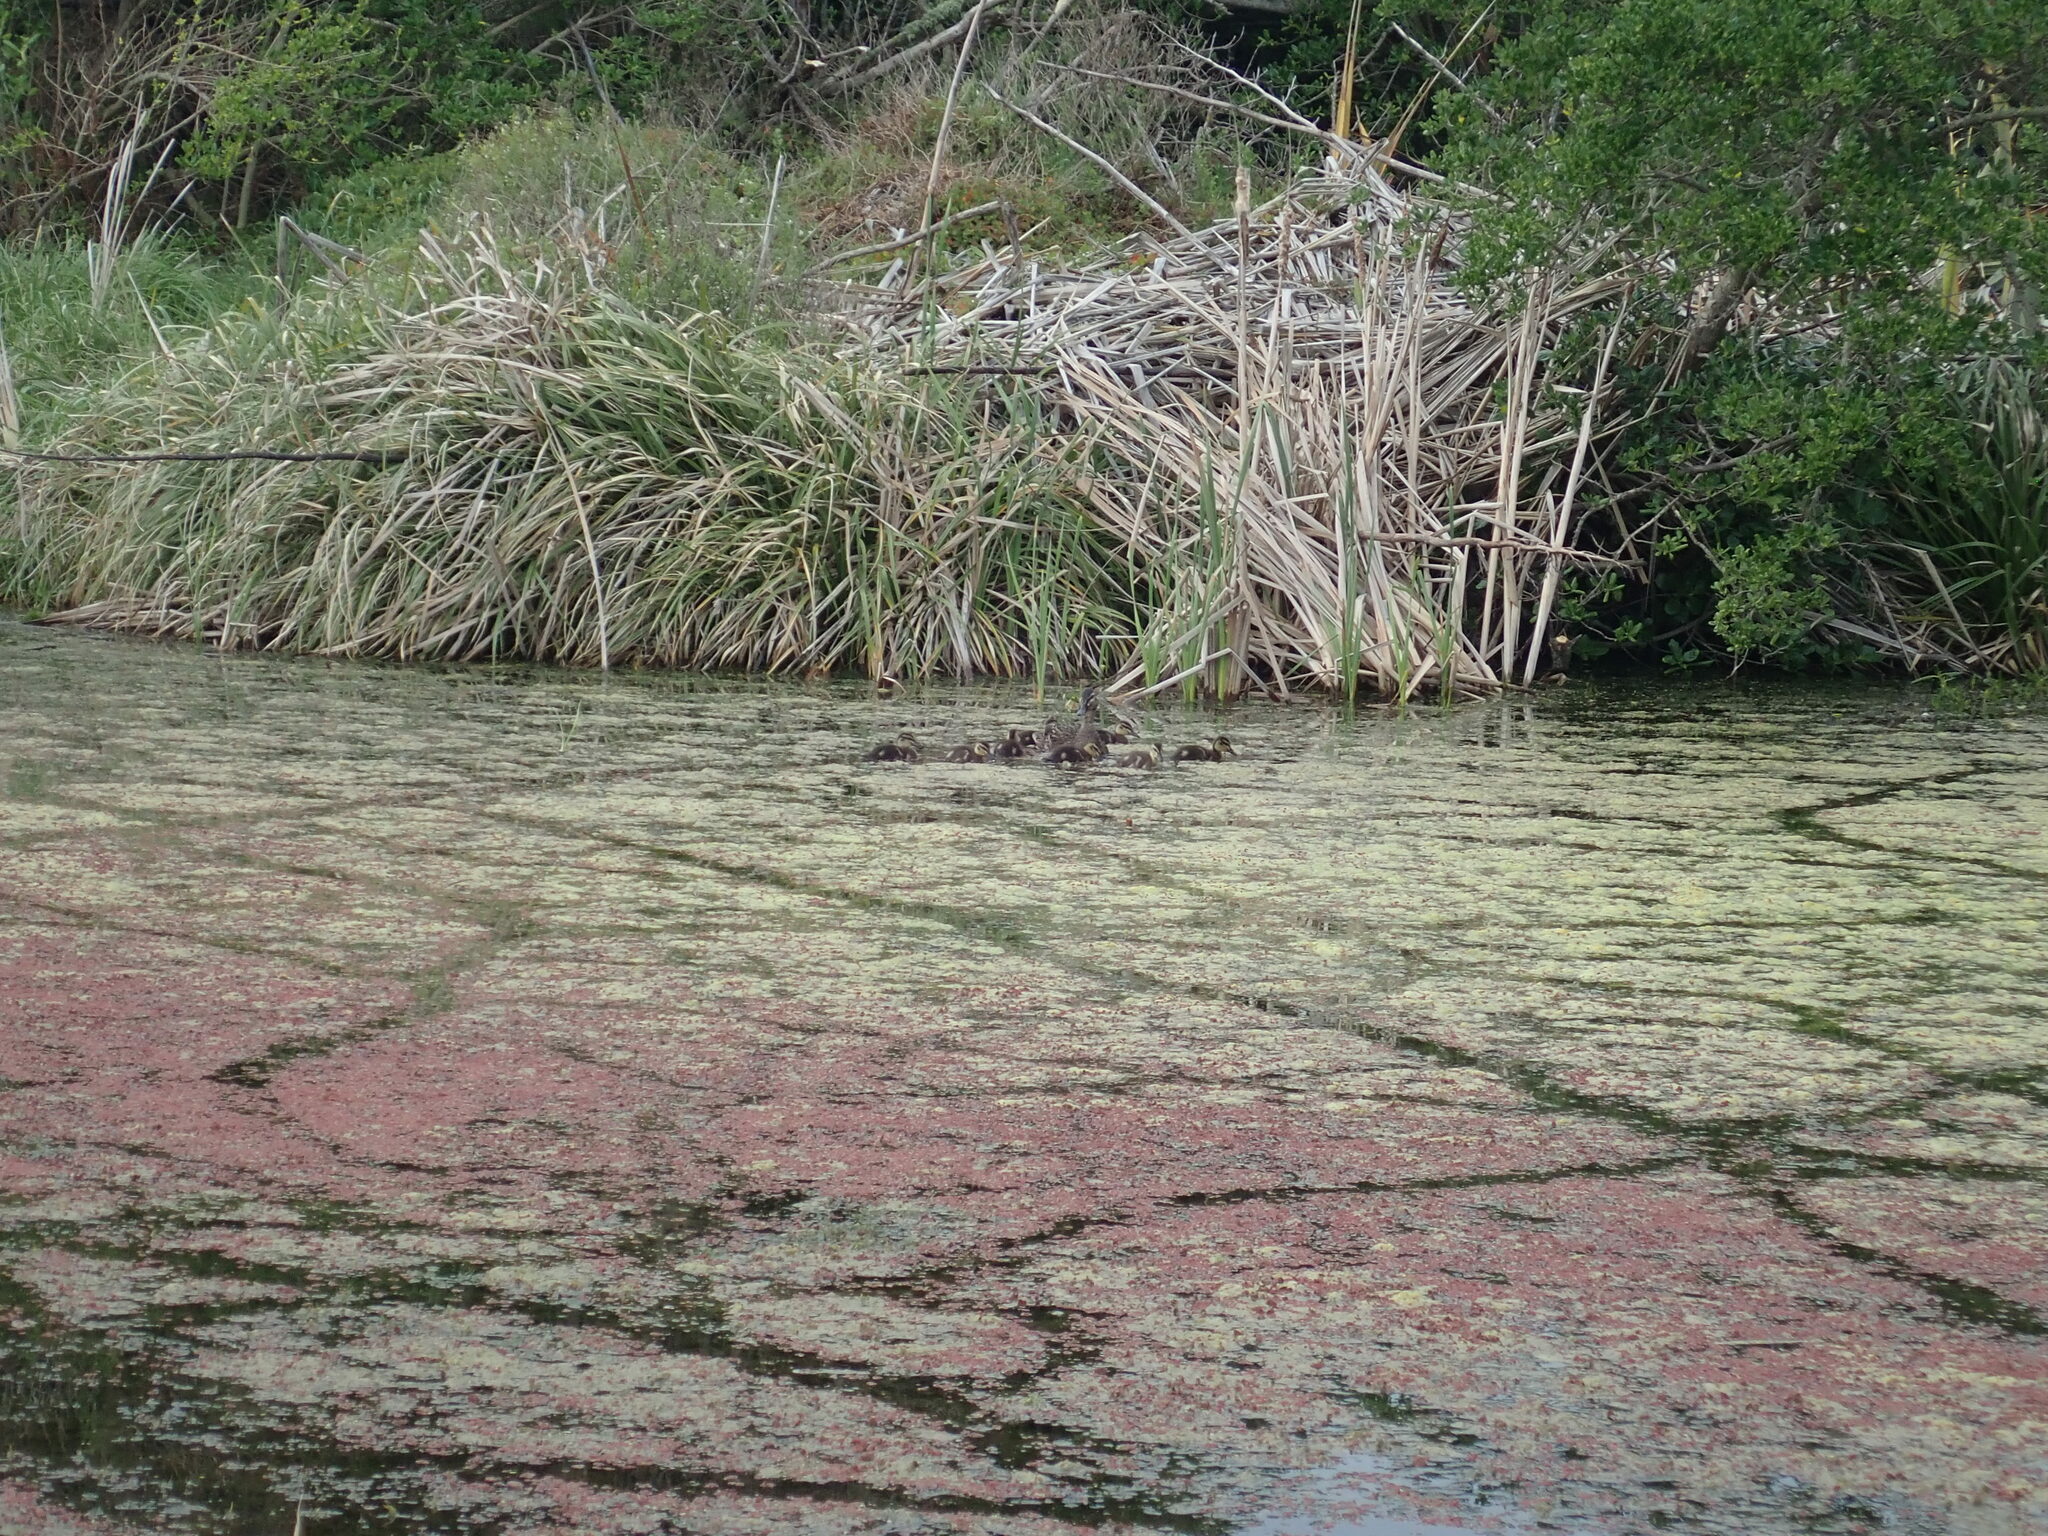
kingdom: Animalia
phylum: Chordata
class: Aves
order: Anseriformes
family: Anatidae
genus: Anas
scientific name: Anas
